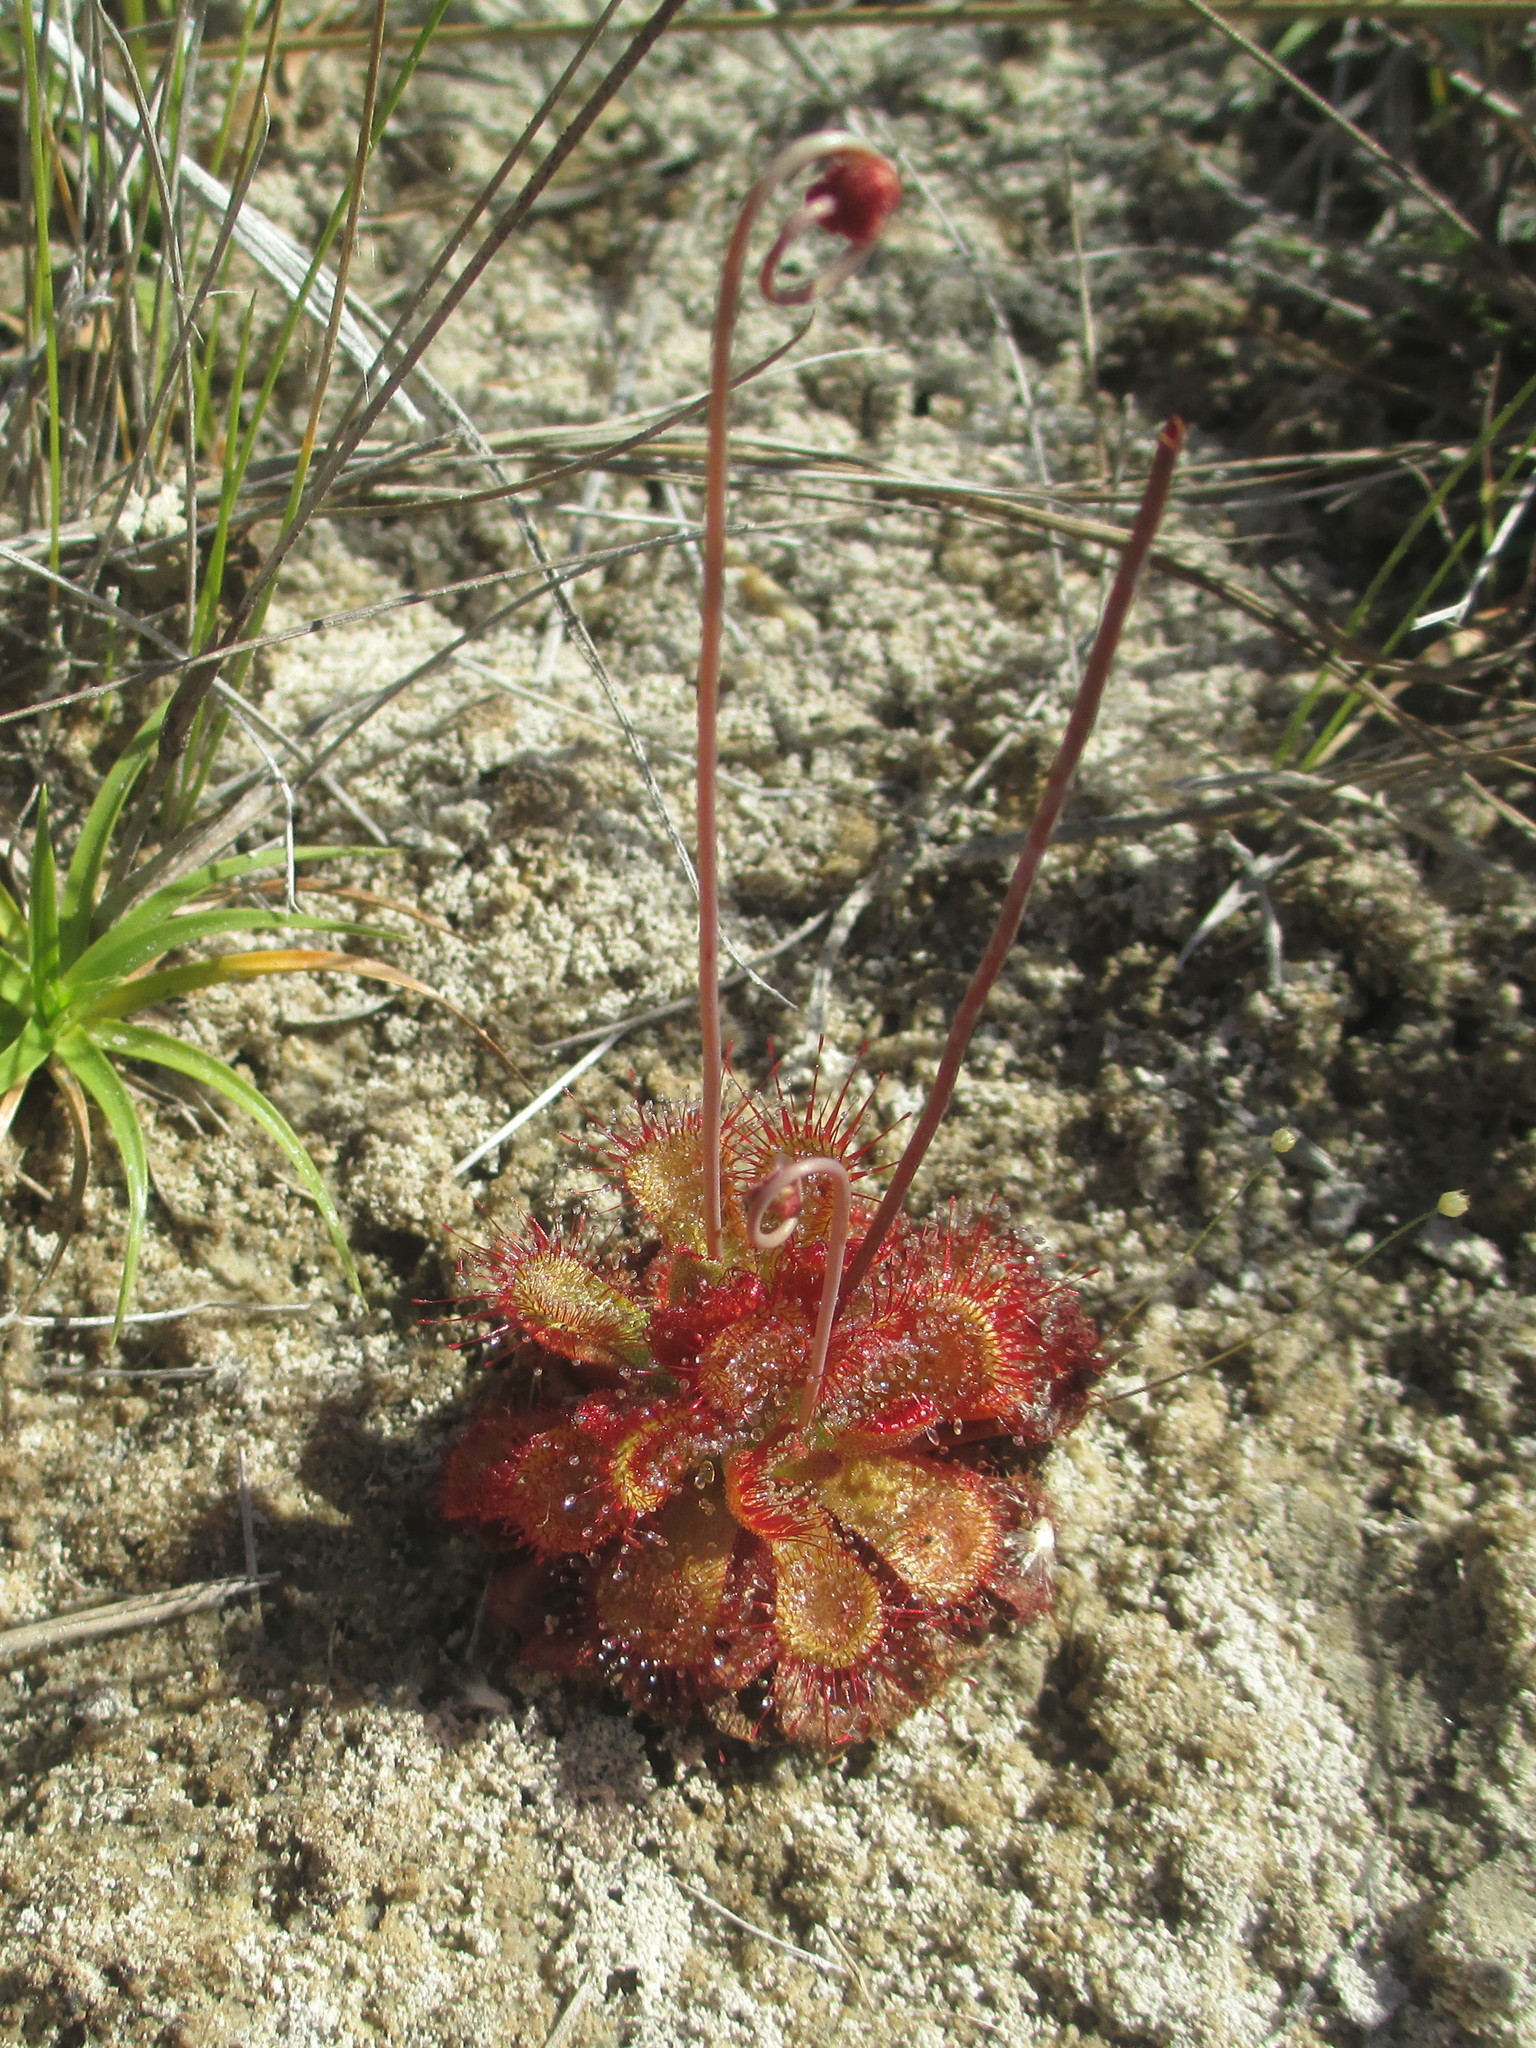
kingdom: Plantae
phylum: Tracheophyta
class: Magnoliopsida
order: Caryophyllales
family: Droseraceae
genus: Drosera
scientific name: Drosera sessilifolia
